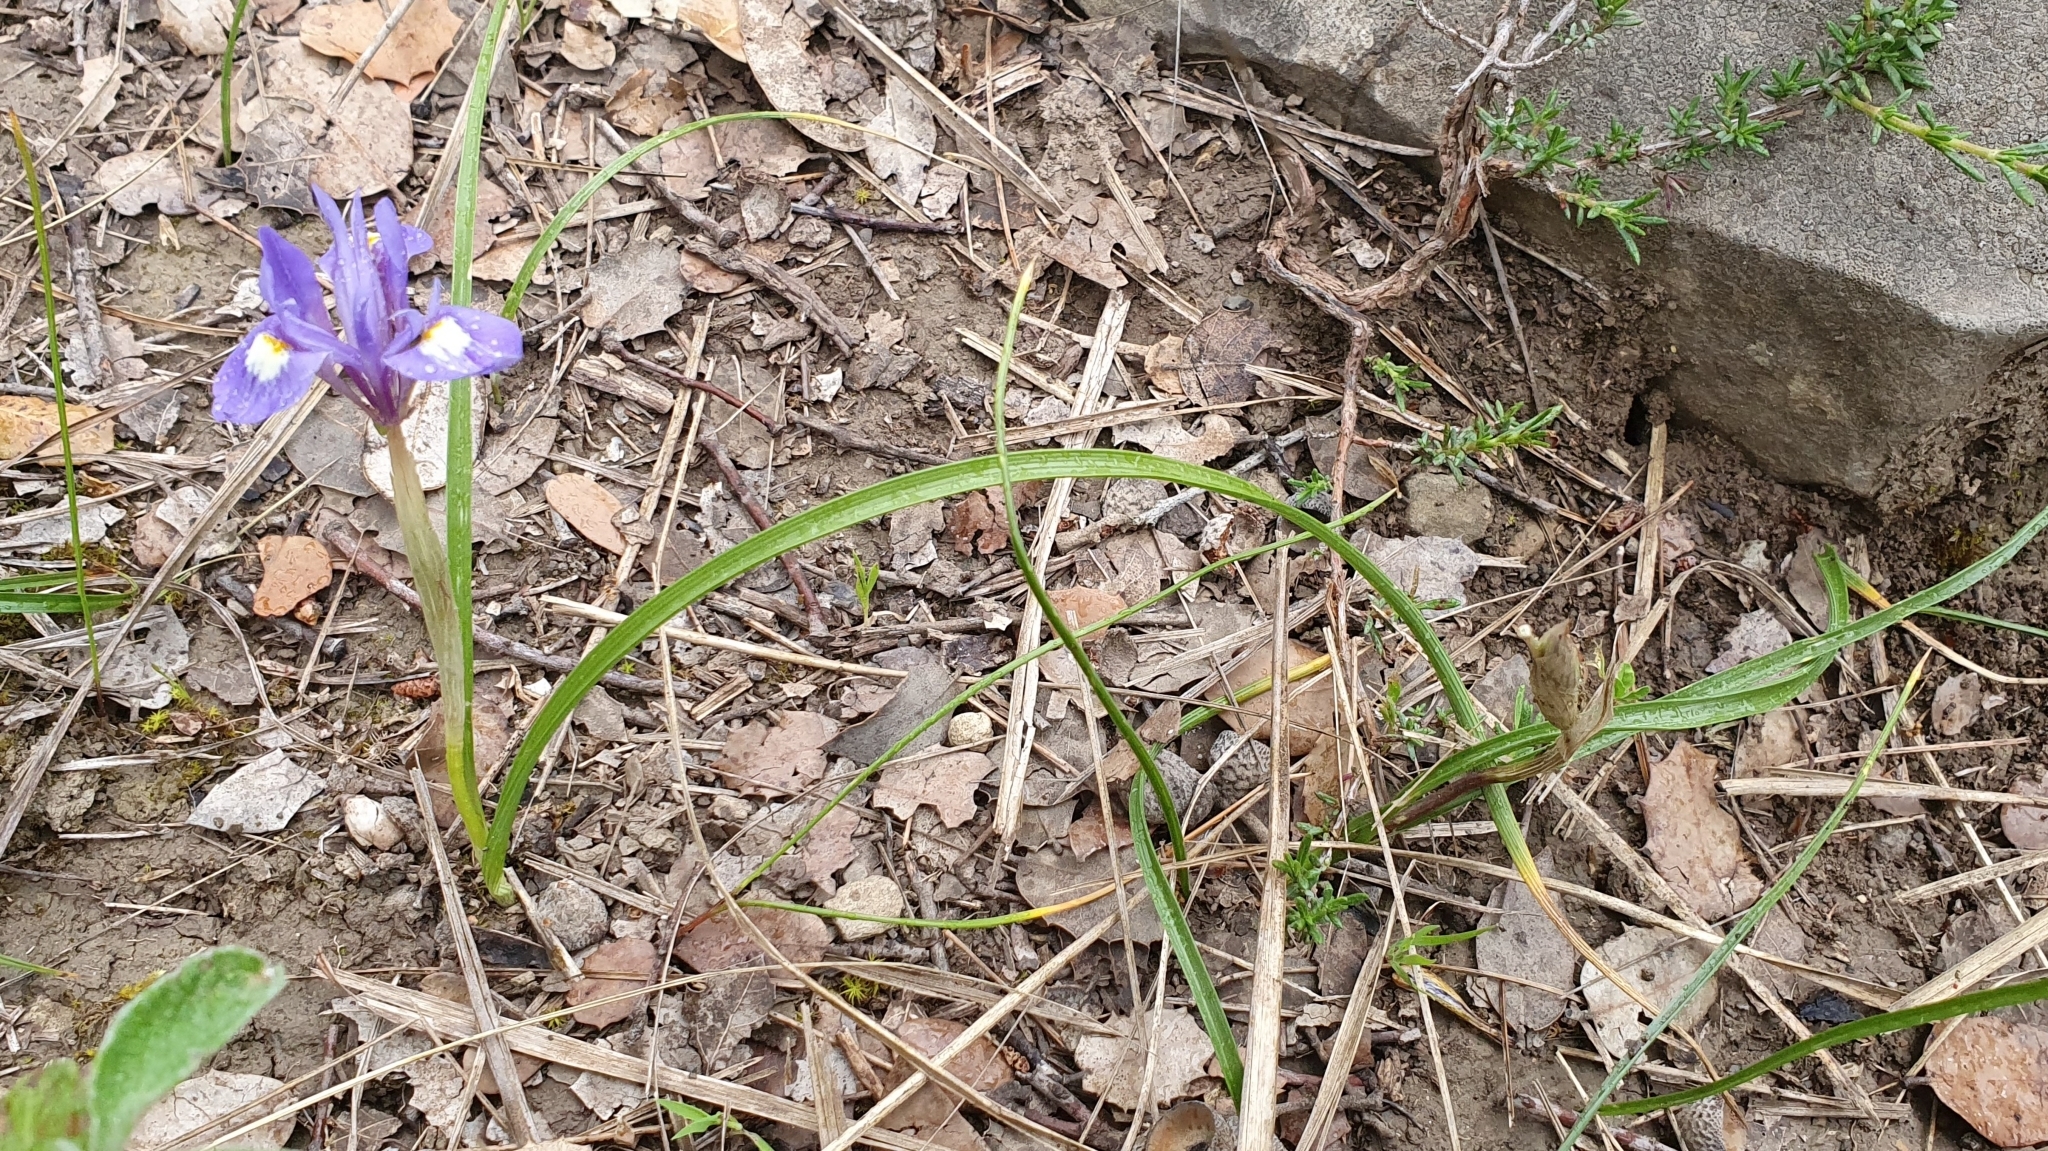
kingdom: Plantae
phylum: Tracheophyta
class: Liliopsida
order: Asparagales
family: Iridaceae
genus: Moraea
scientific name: Moraea sisyrinchium
